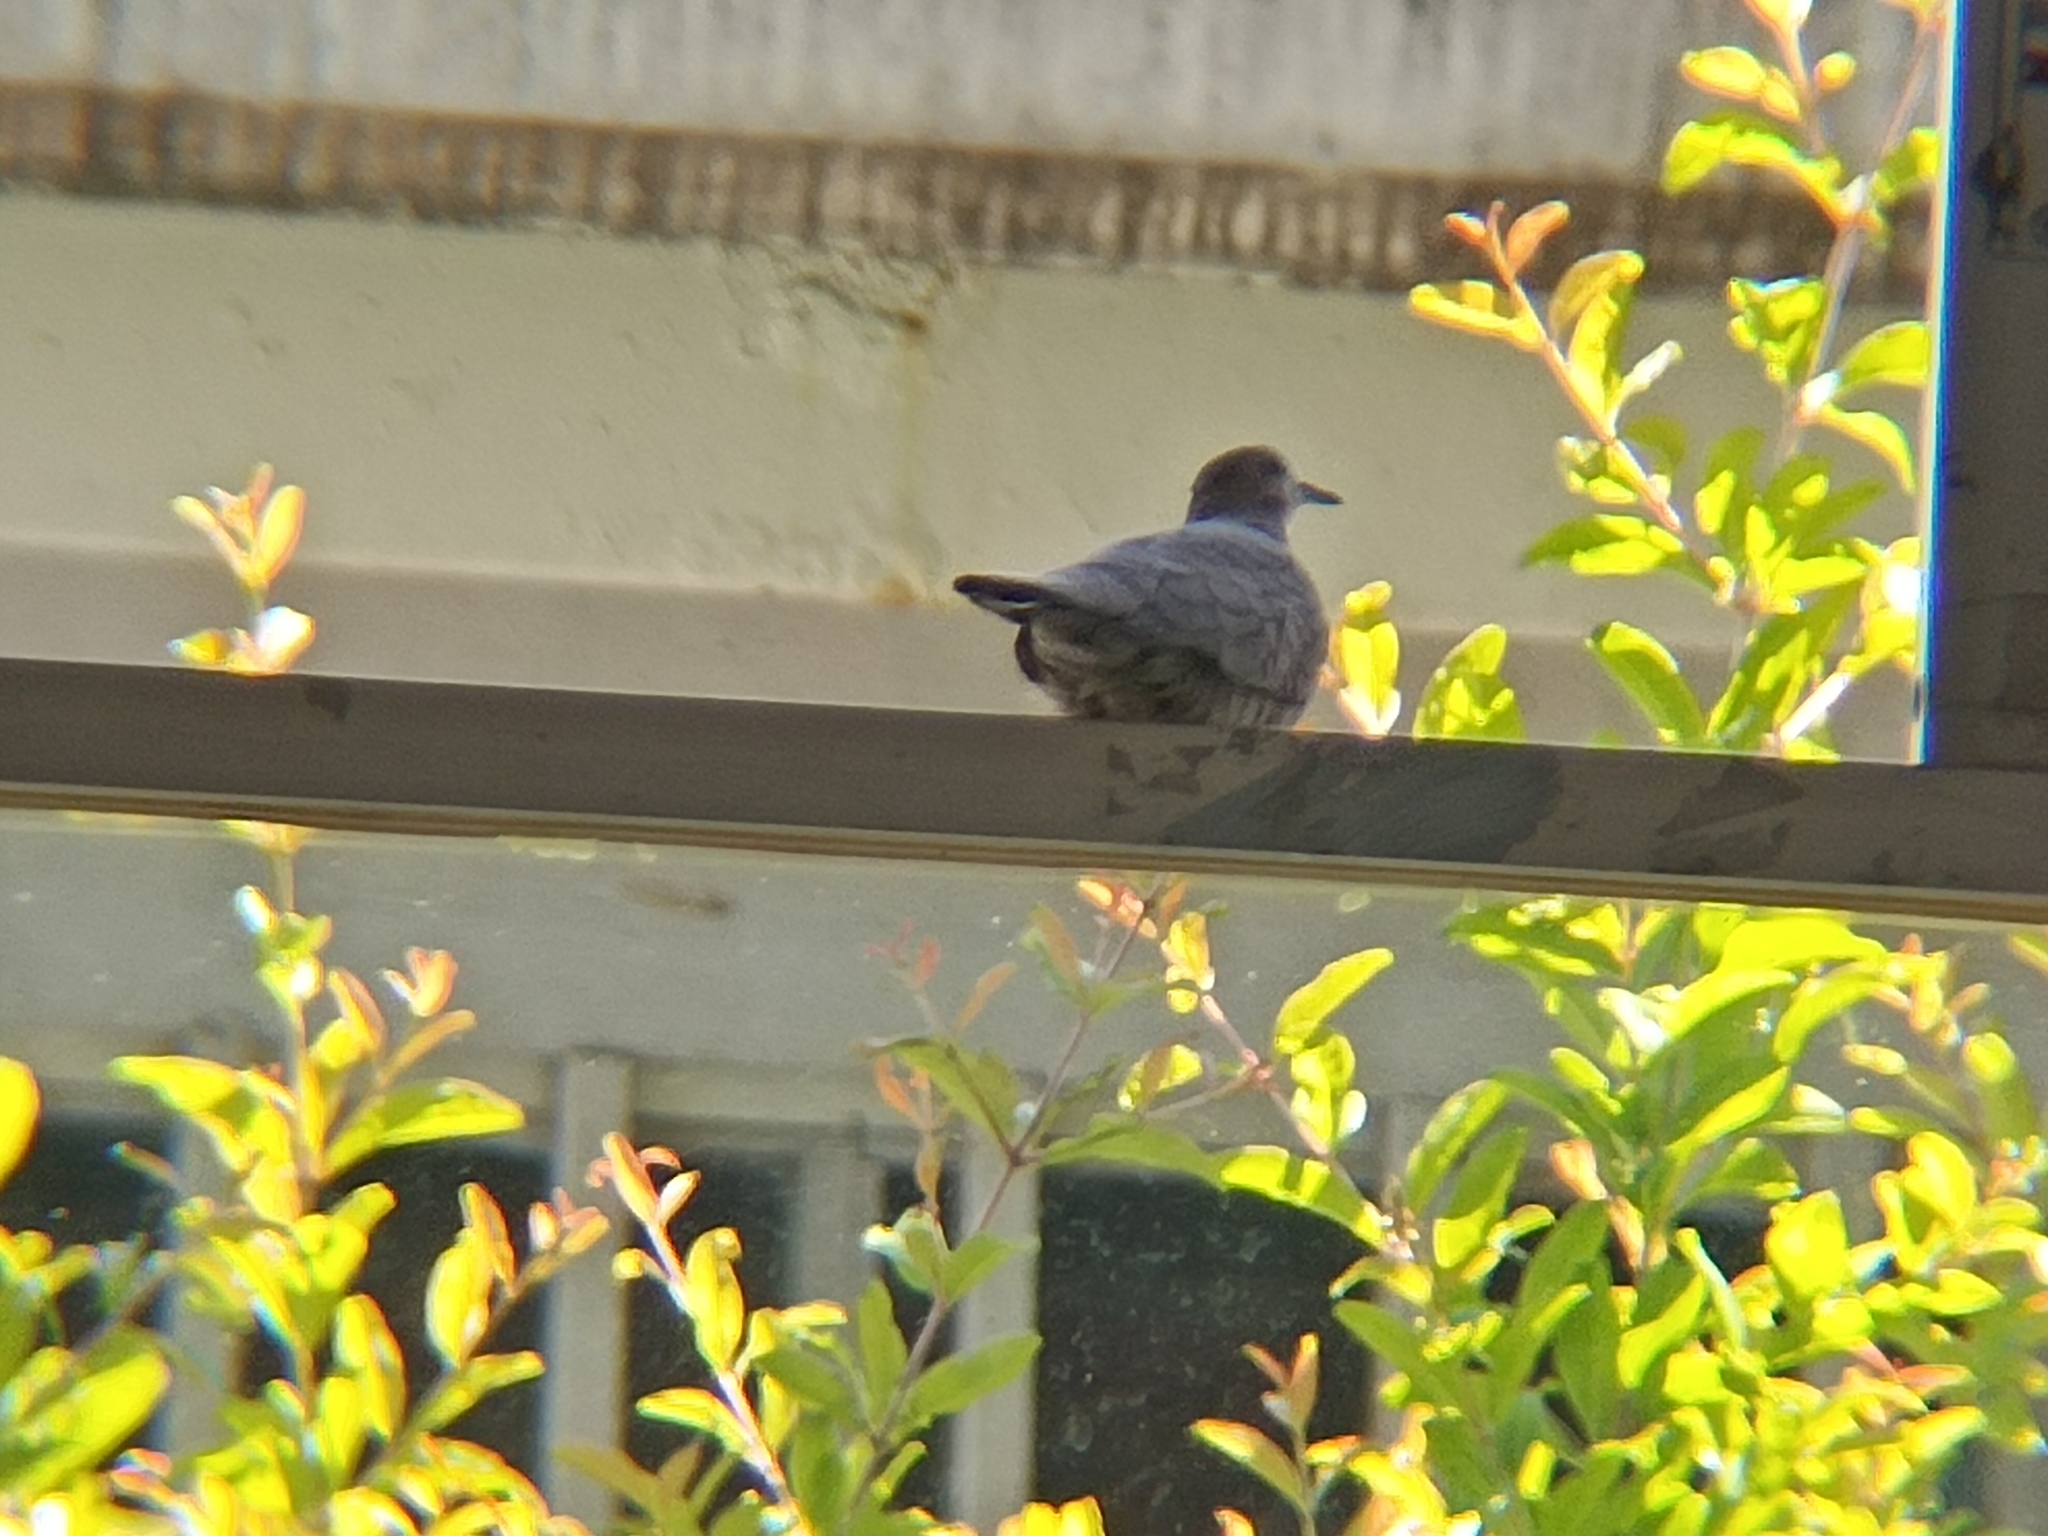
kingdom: Animalia
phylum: Chordata
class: Aves
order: Columbiformes
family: Columbidae
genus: Columbina
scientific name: Columbina inca
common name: Inca dove
